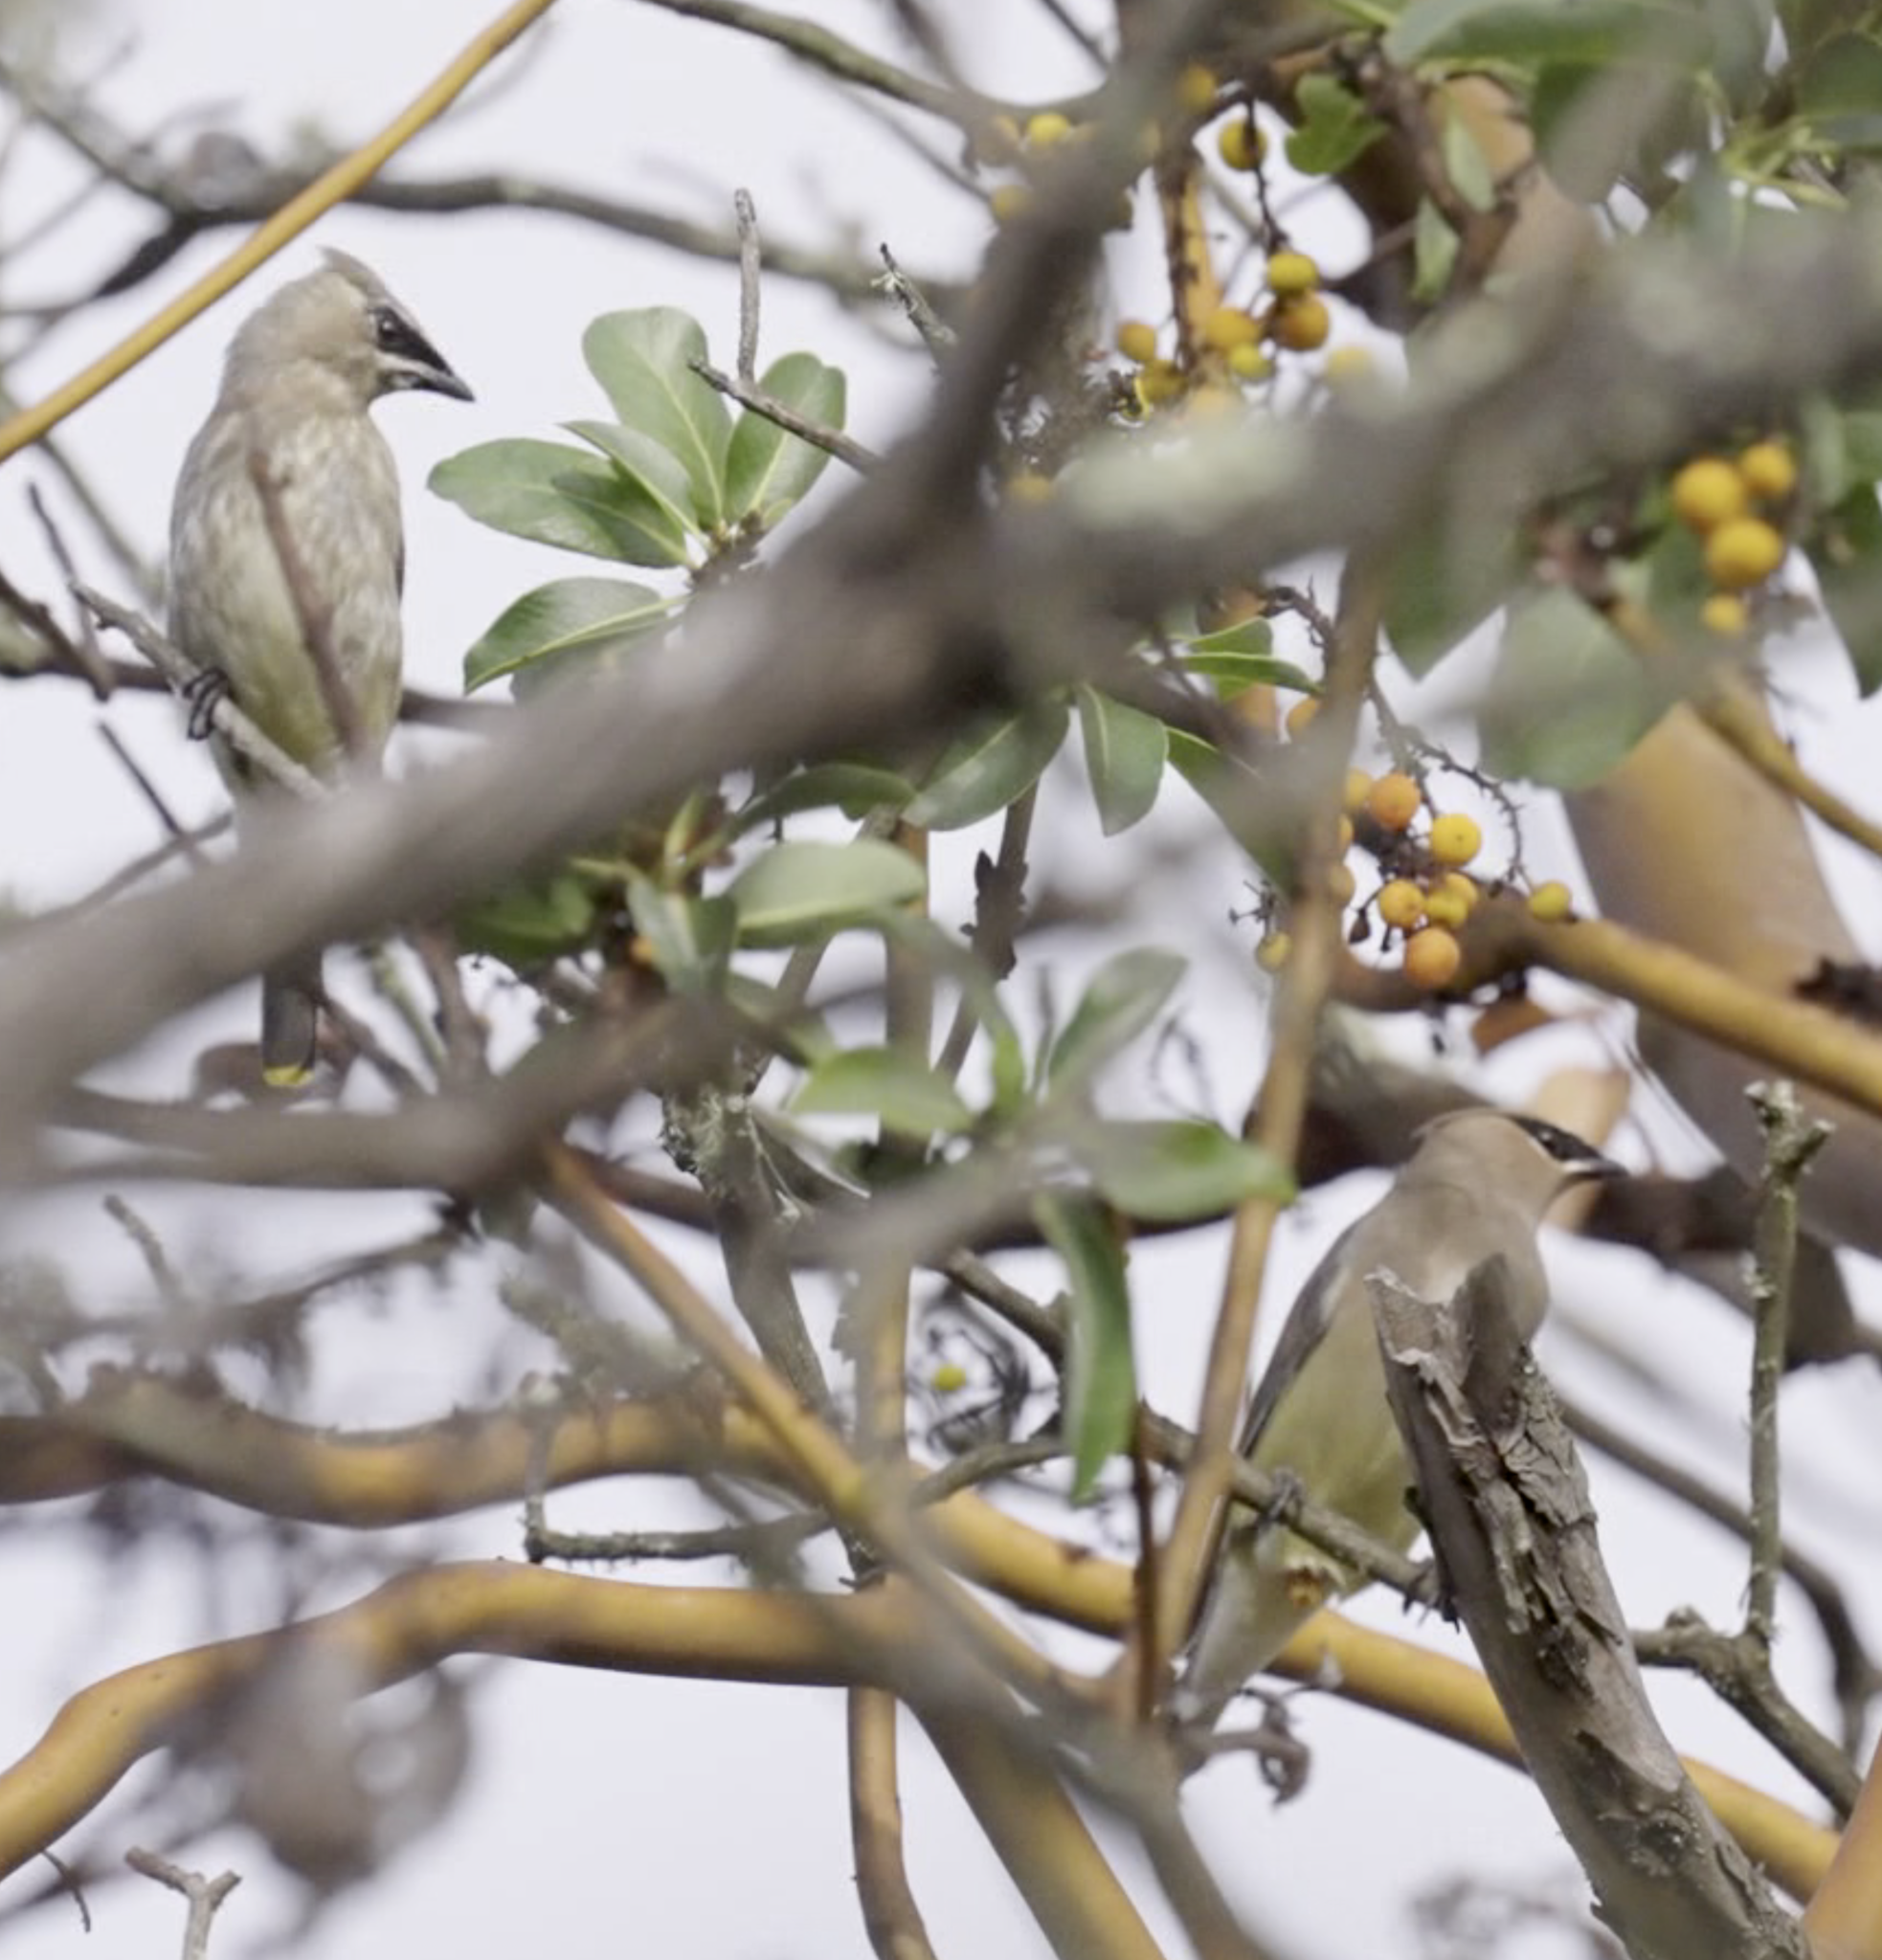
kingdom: Animalia
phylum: Chordata
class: Aves
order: Passeriformes
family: Bombycillidae
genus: Bombycilla
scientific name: Bombycilla cedrorum
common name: Cedar waxwing
